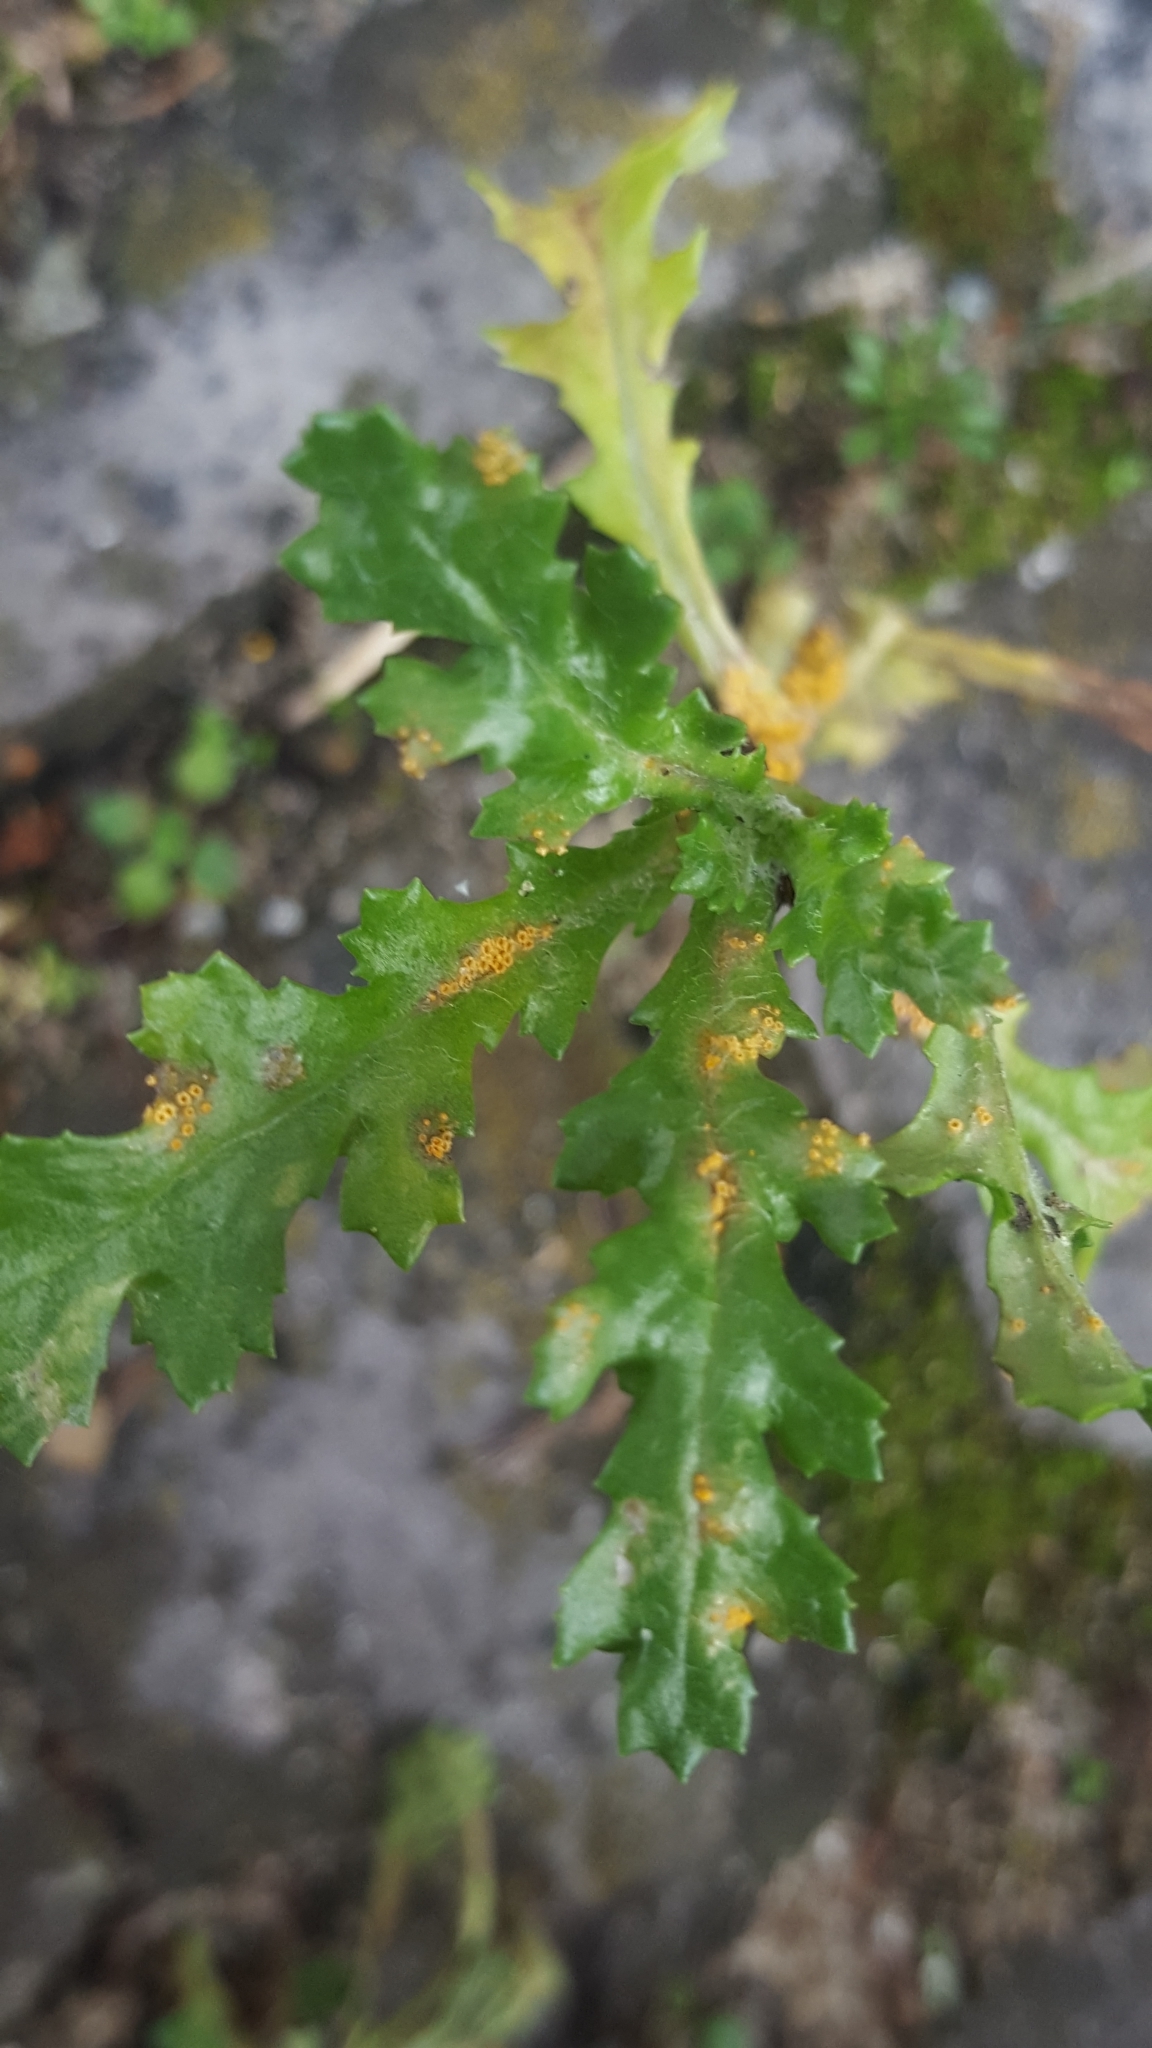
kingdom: Fungi
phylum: Basidiomycota
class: Pucciniomycetes
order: Pucciniales
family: Pucciniaceae
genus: Puccinia
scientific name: Puccinia lagenophorae
